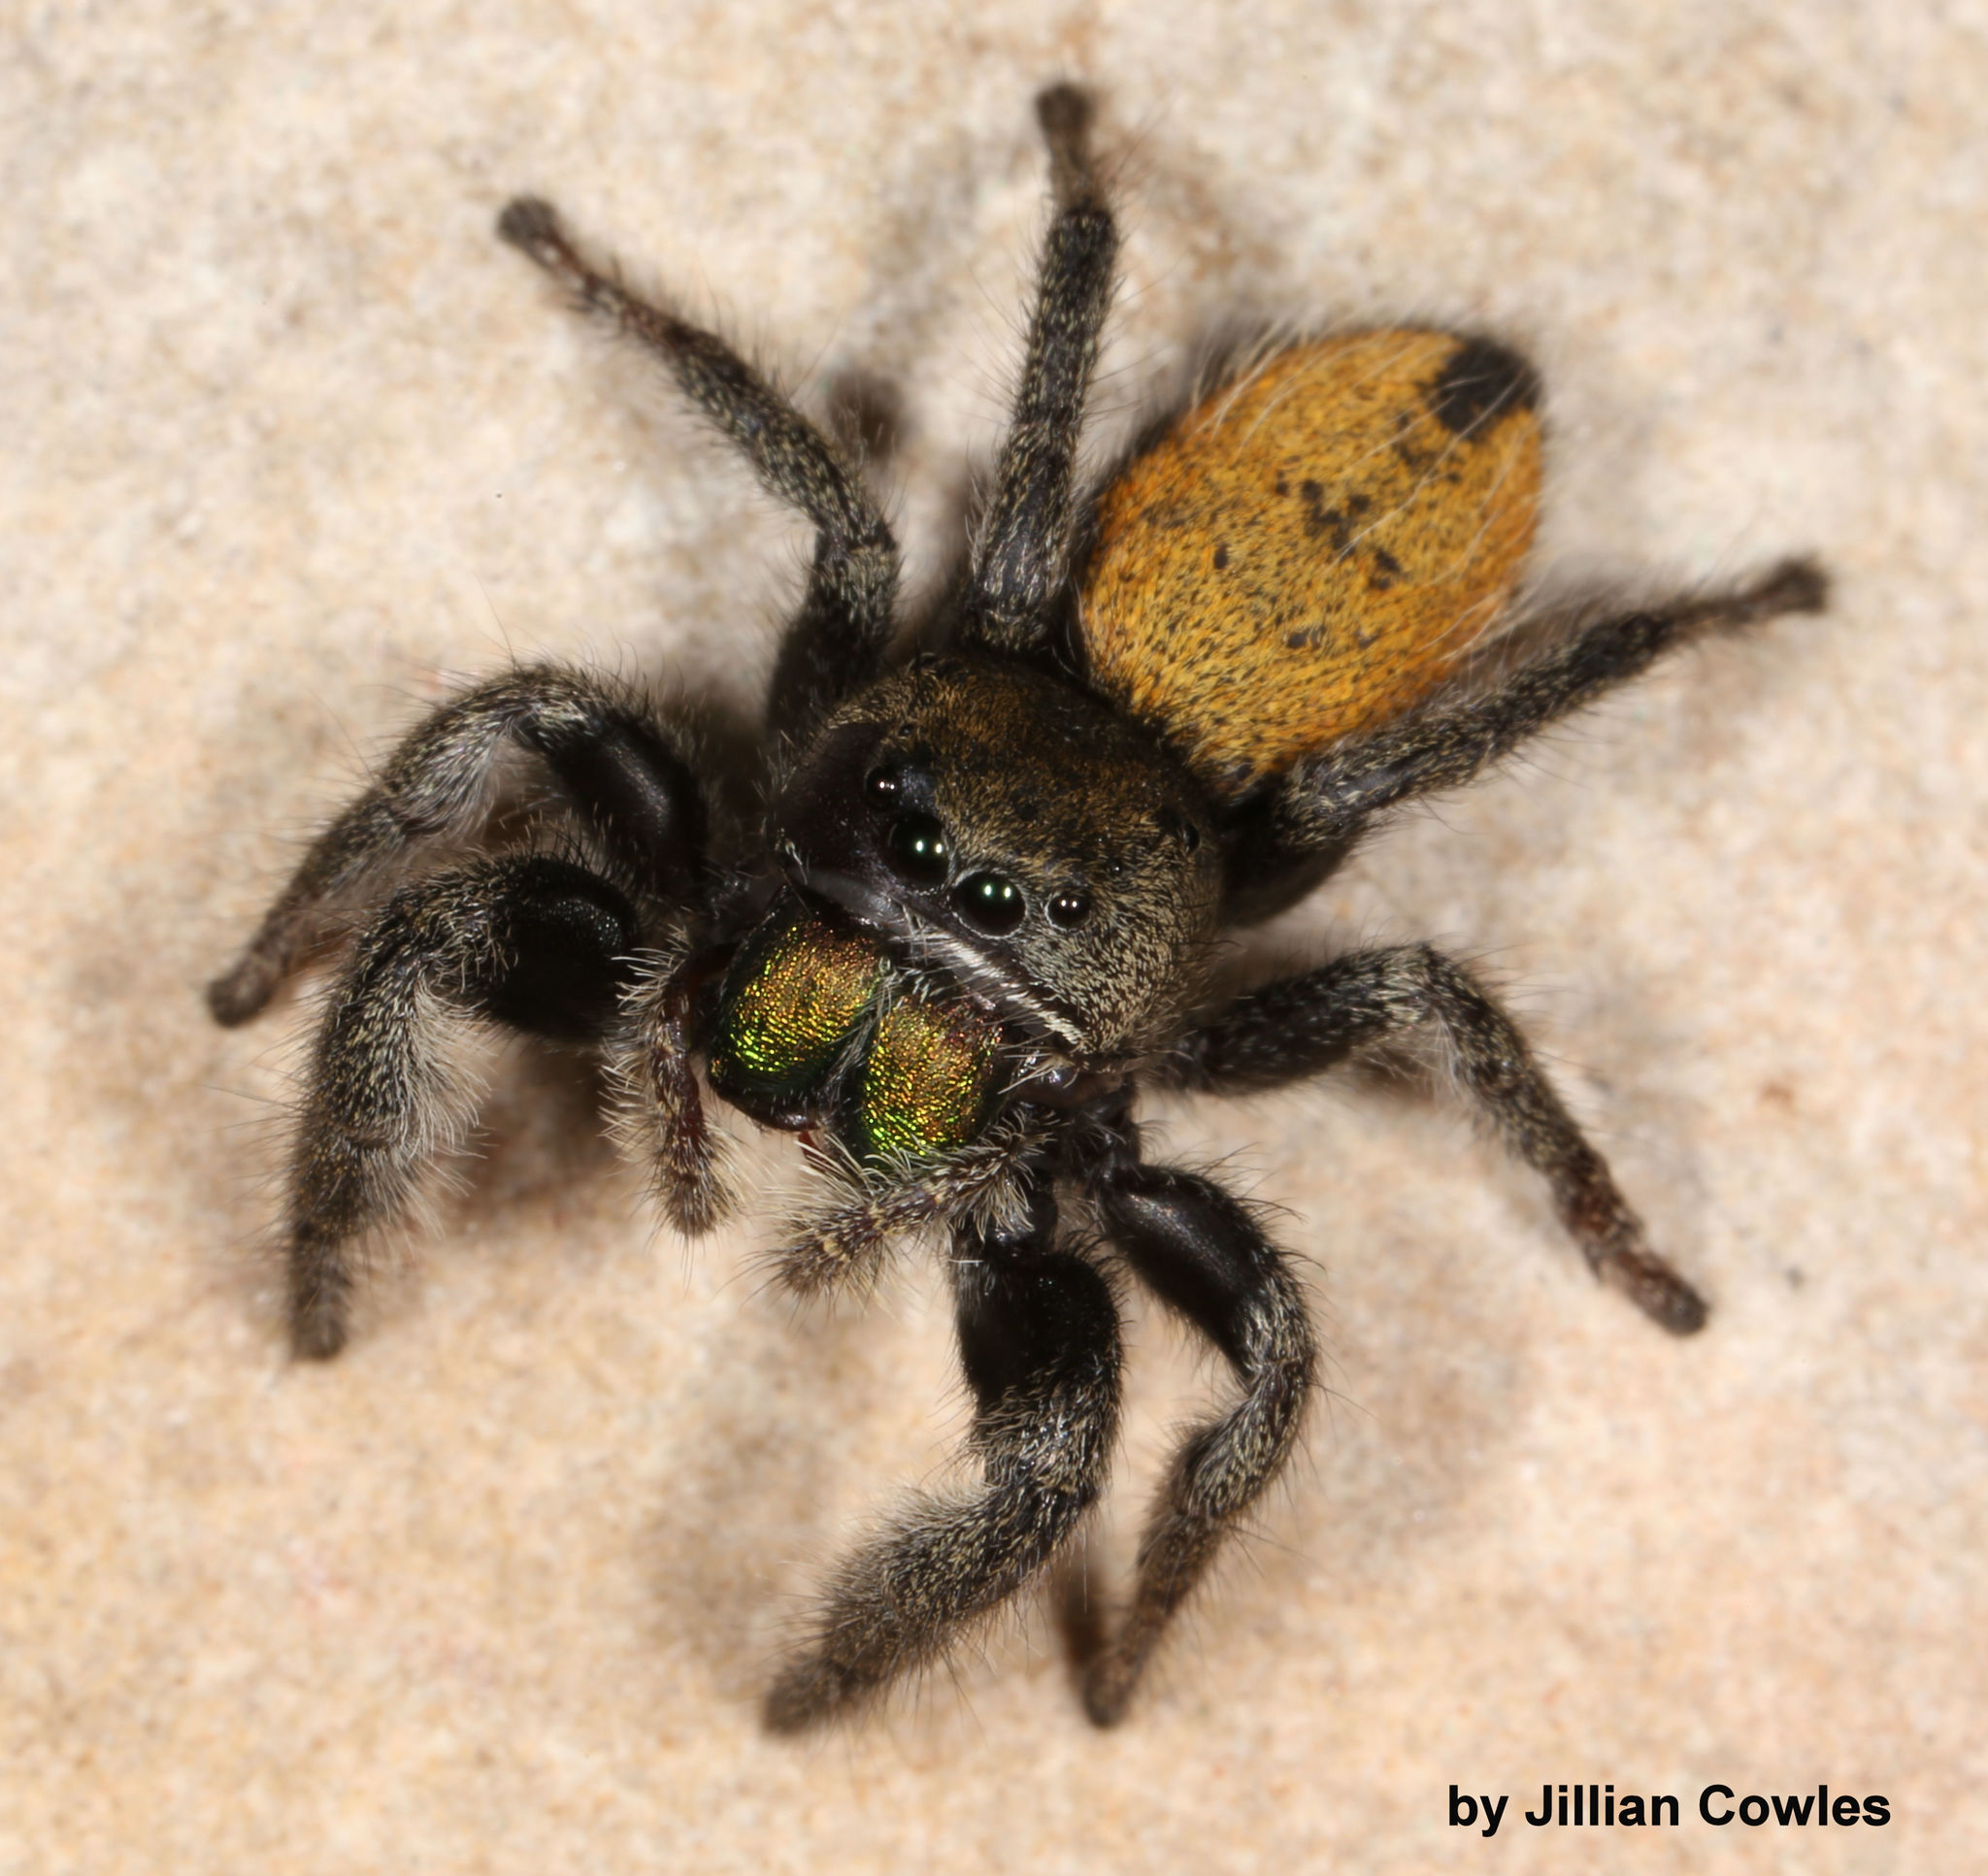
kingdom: Animalia
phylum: Arthropoda
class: Arachnida
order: Araneae
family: Salticidae
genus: Phidippus
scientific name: Phidippus ardens
